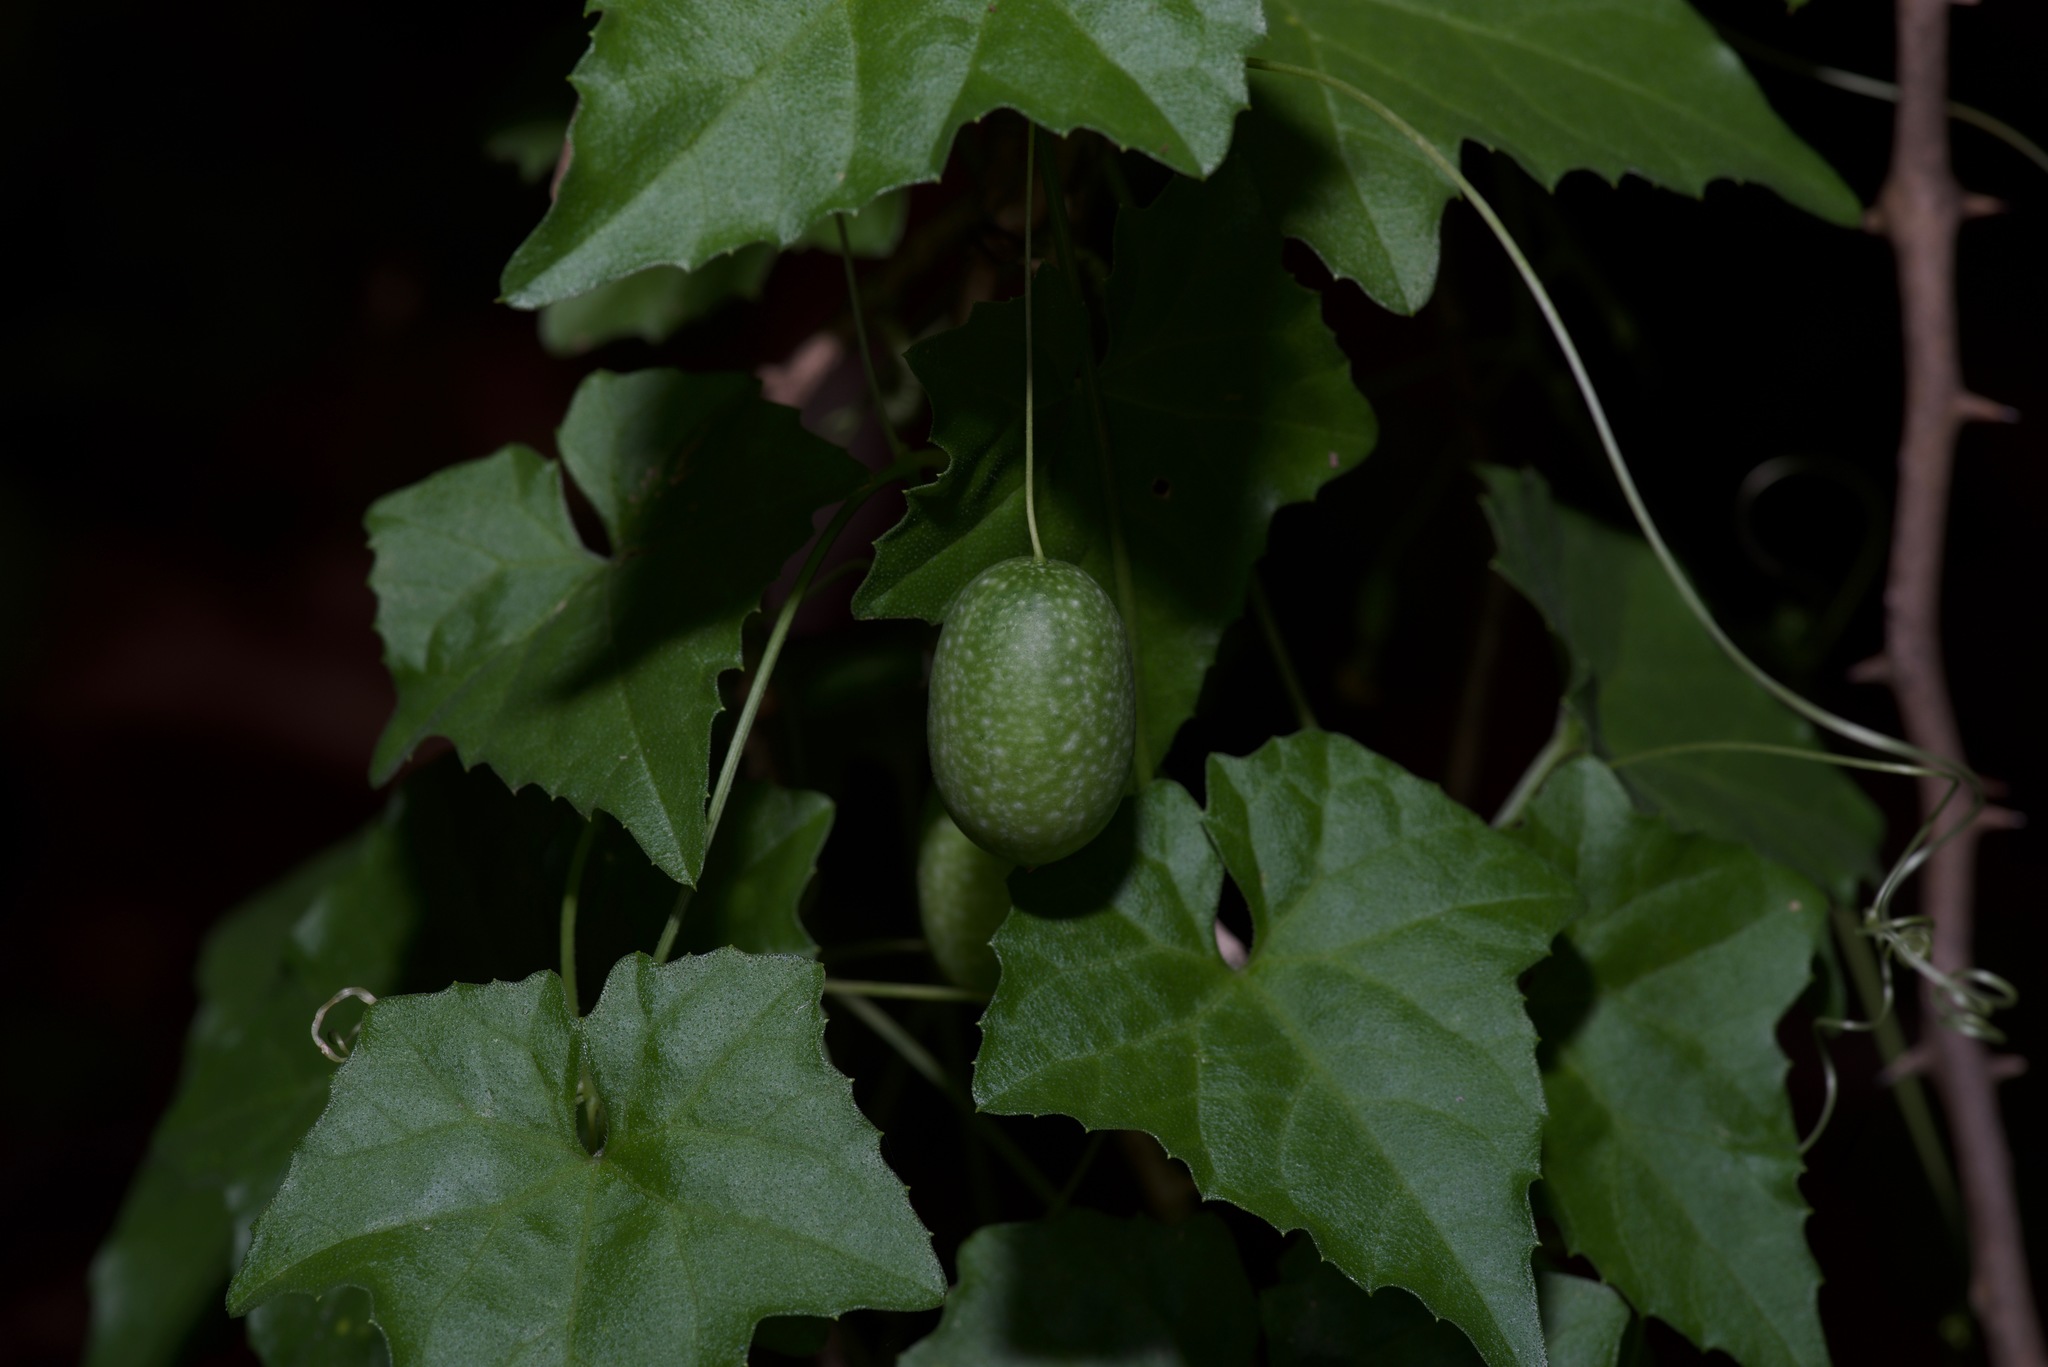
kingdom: Plantae
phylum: Tracheophyta
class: Magnoliopsida
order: Cucurbitales
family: Cucurbitaceae
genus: Melothria
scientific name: Melothria pendula
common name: Creeping-cucumber
